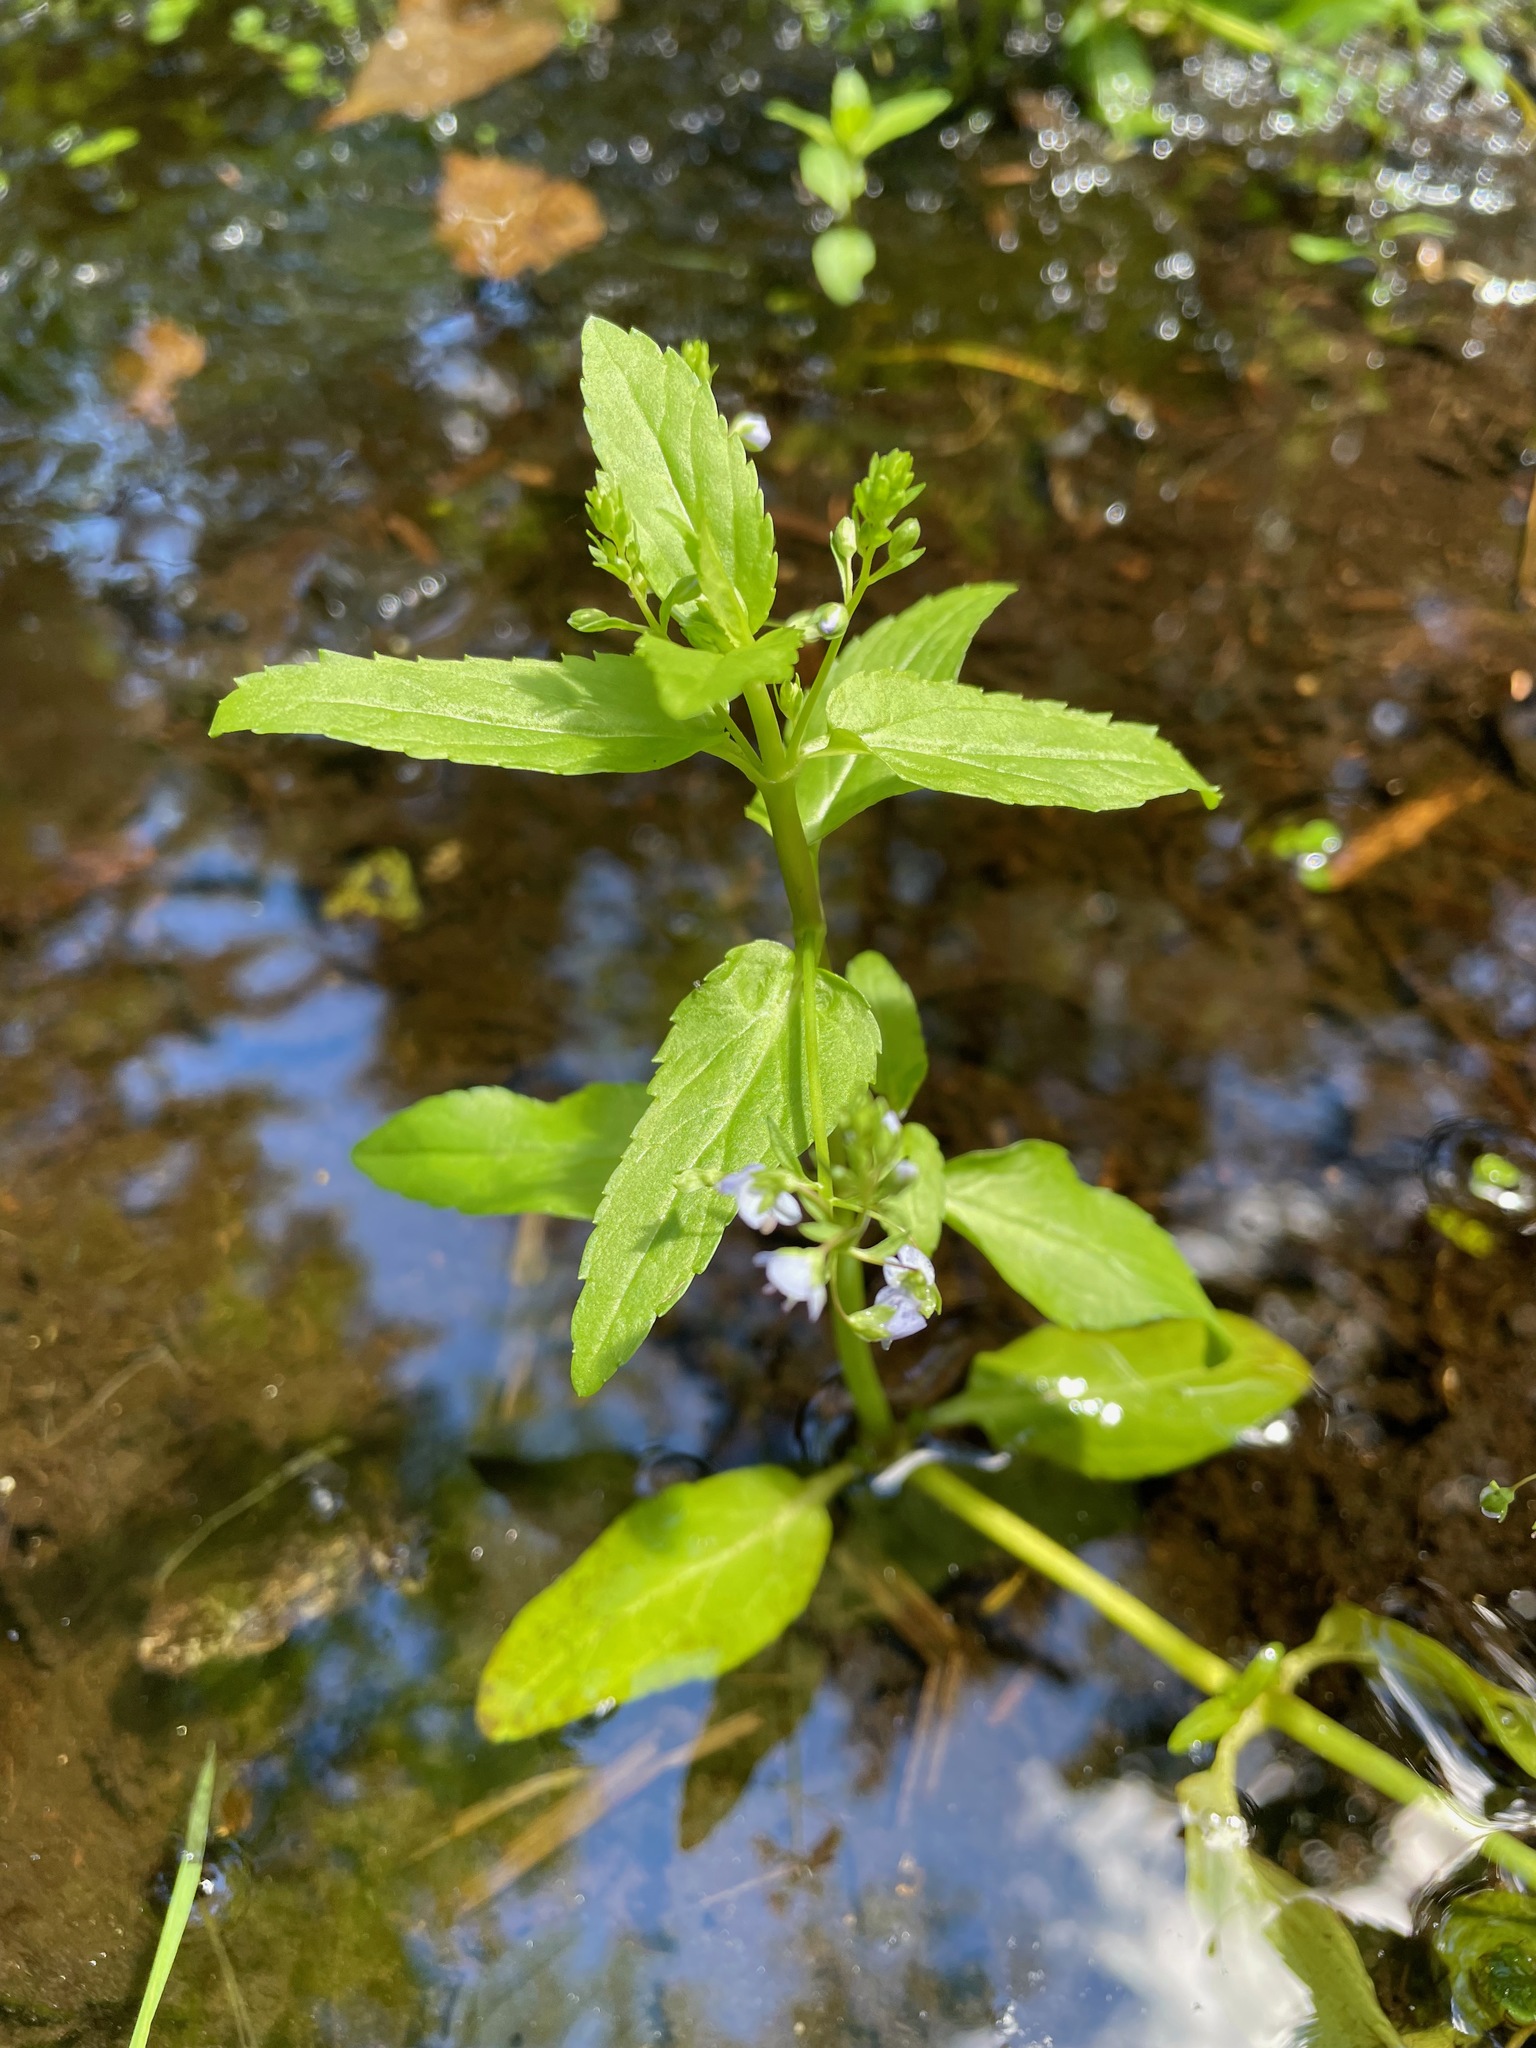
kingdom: Plantae
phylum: Tracheophyta
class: Magnoliopsida
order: Lamiales
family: Plantaginaceae
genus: Veronica
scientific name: Veronica americana
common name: American brooklime
